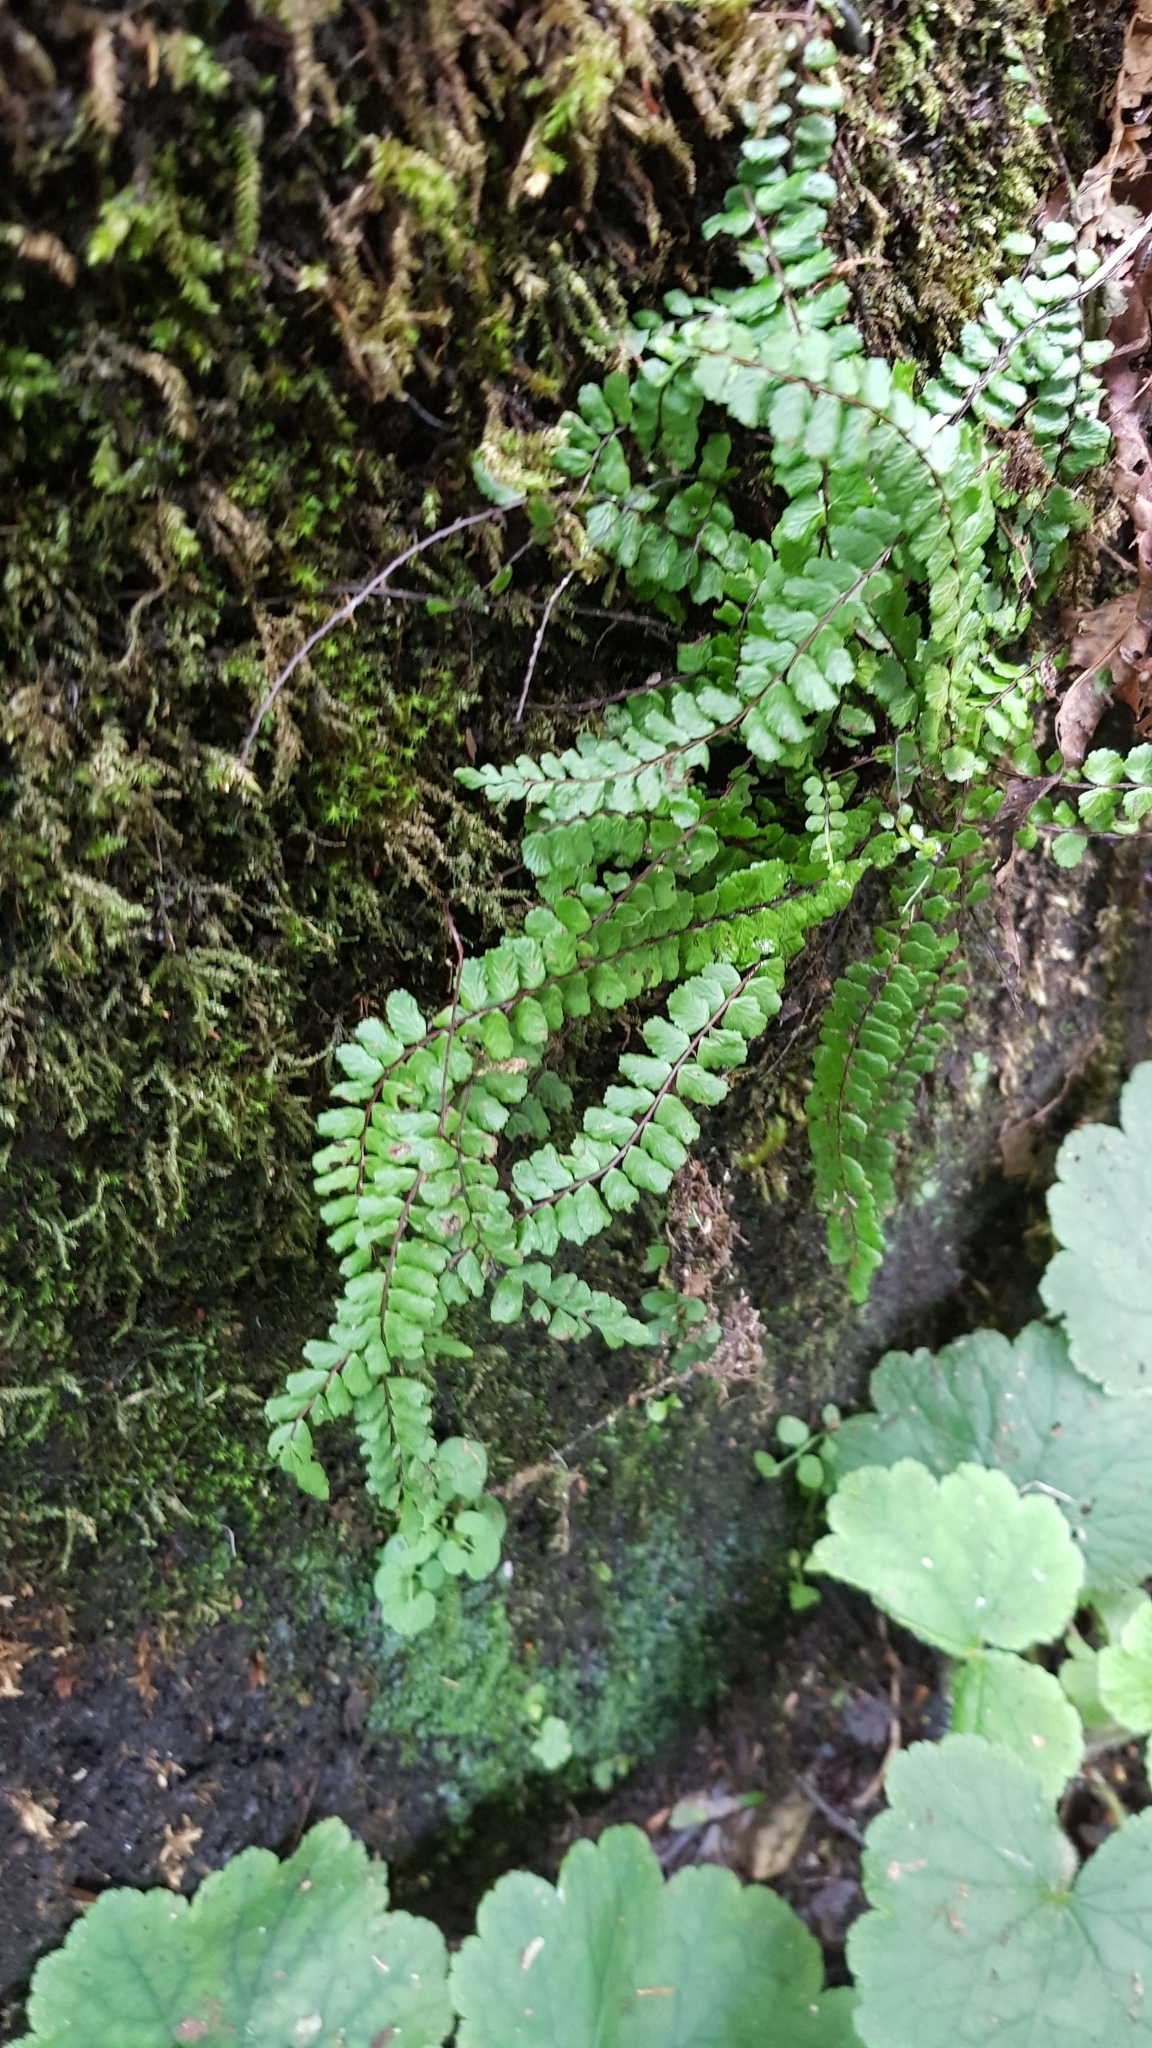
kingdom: Plantae
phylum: Tracheophyta
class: Polypodiopsida
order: Polypodiales
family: Aspleniaceae
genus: Asplenium
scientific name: Asplenium trichomanes
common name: Maidenhair spleenwort
